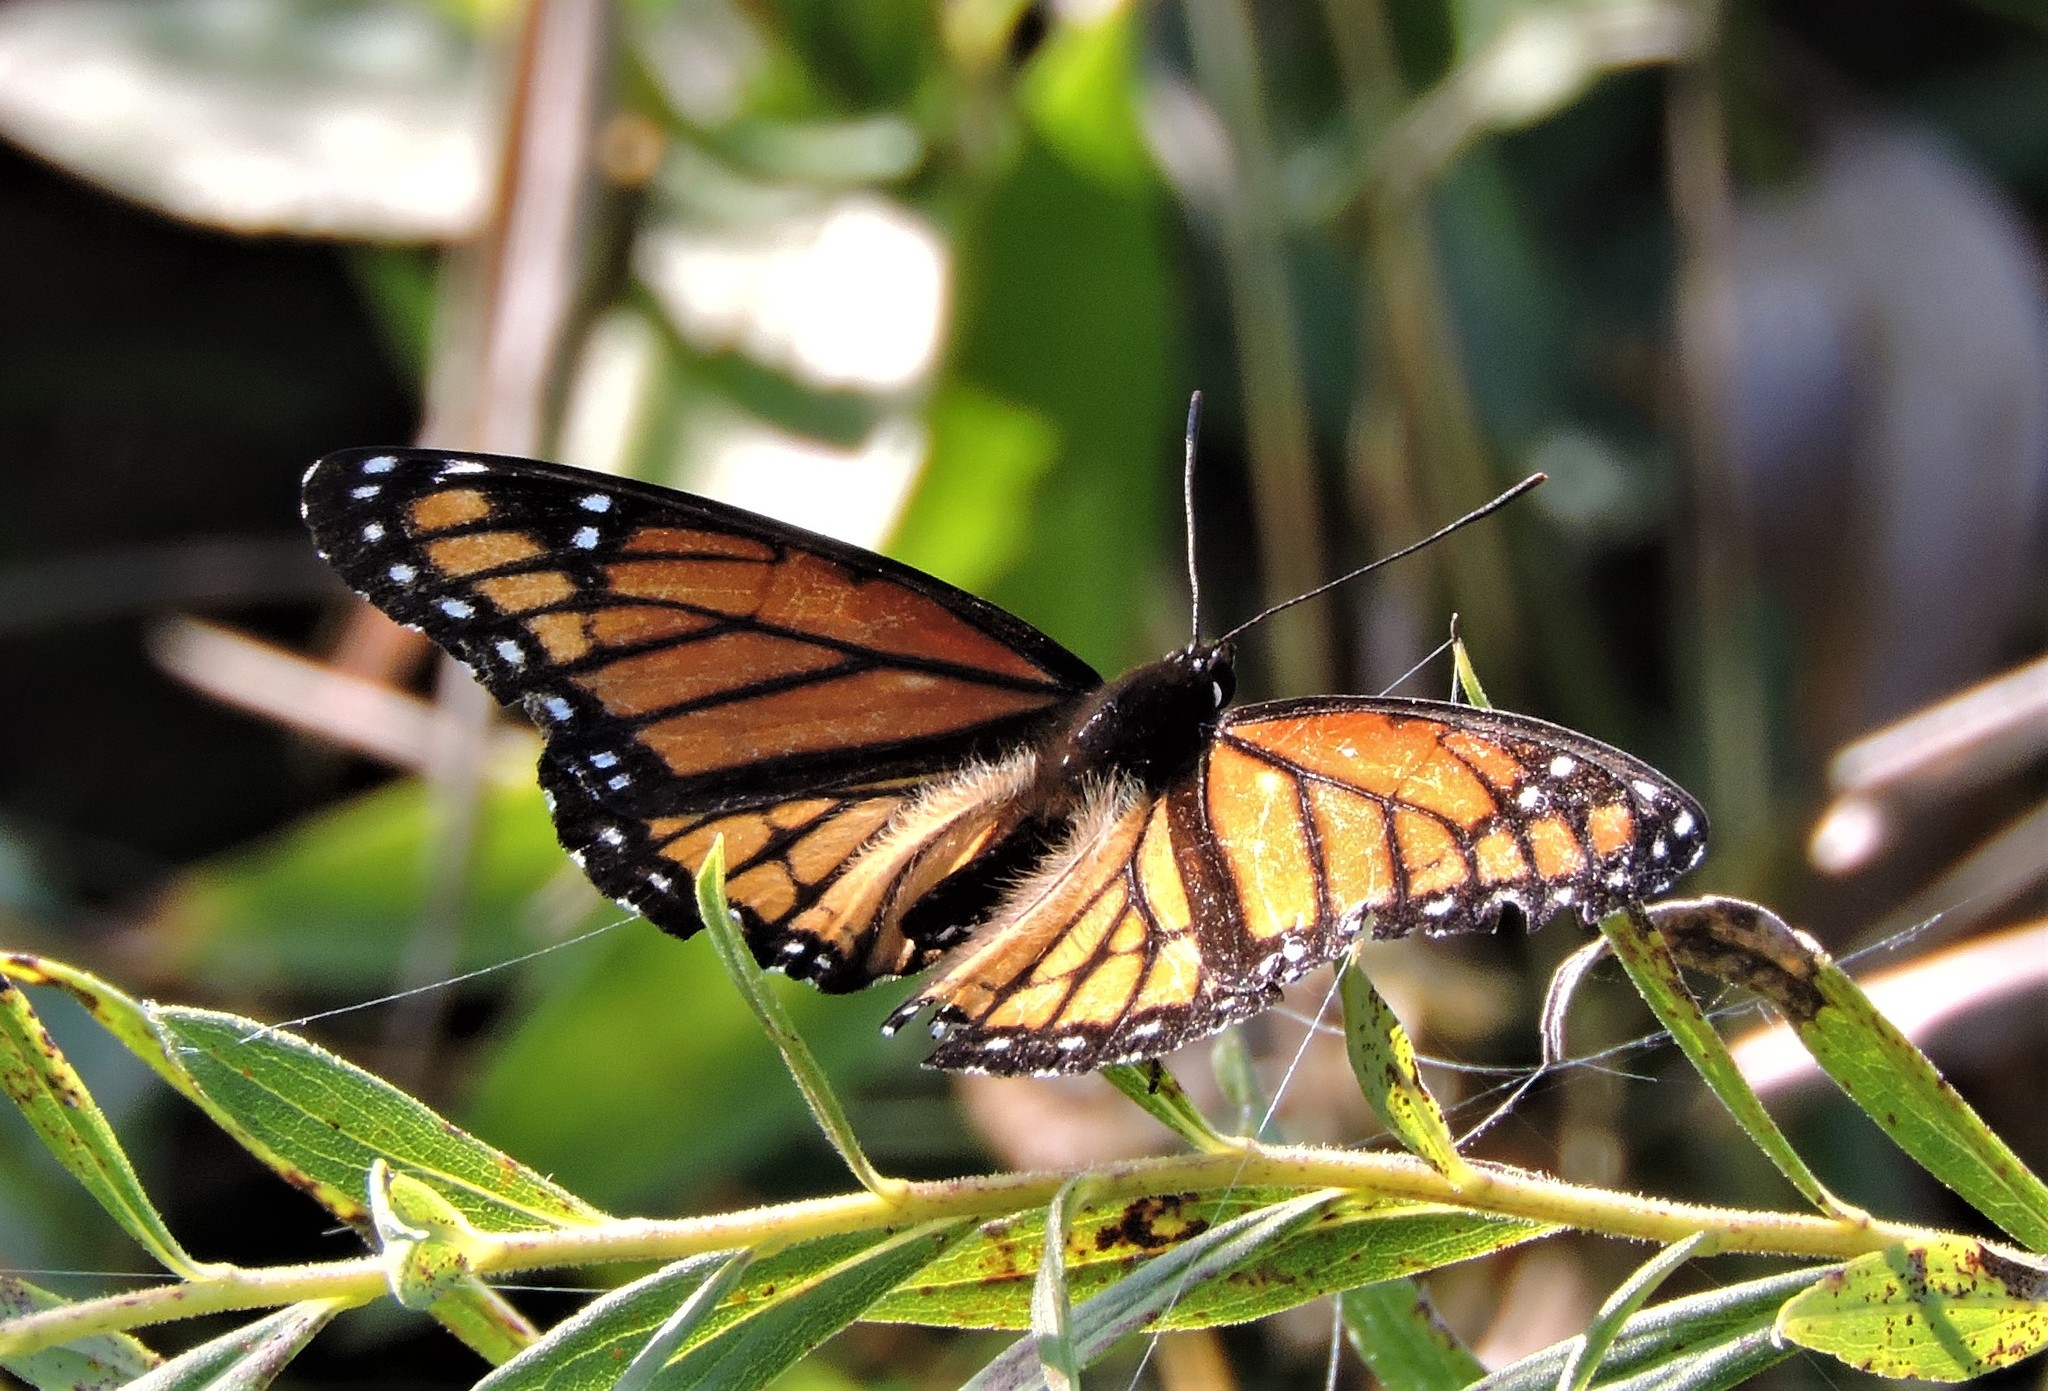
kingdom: Animalia
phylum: Arthropoda
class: Insecta
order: Lepidoptera
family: Nymphalidae
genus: Limenitis
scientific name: Limenitis archippus
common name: Viceroy
